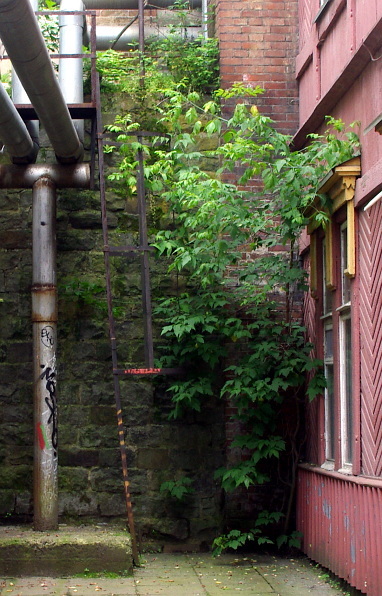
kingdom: Plantae
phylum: Tracheophyta
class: Magnoliopsida
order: Sapindales
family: Sapindaceae
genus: Acer
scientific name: Acer negundo
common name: Ashleaf maple
